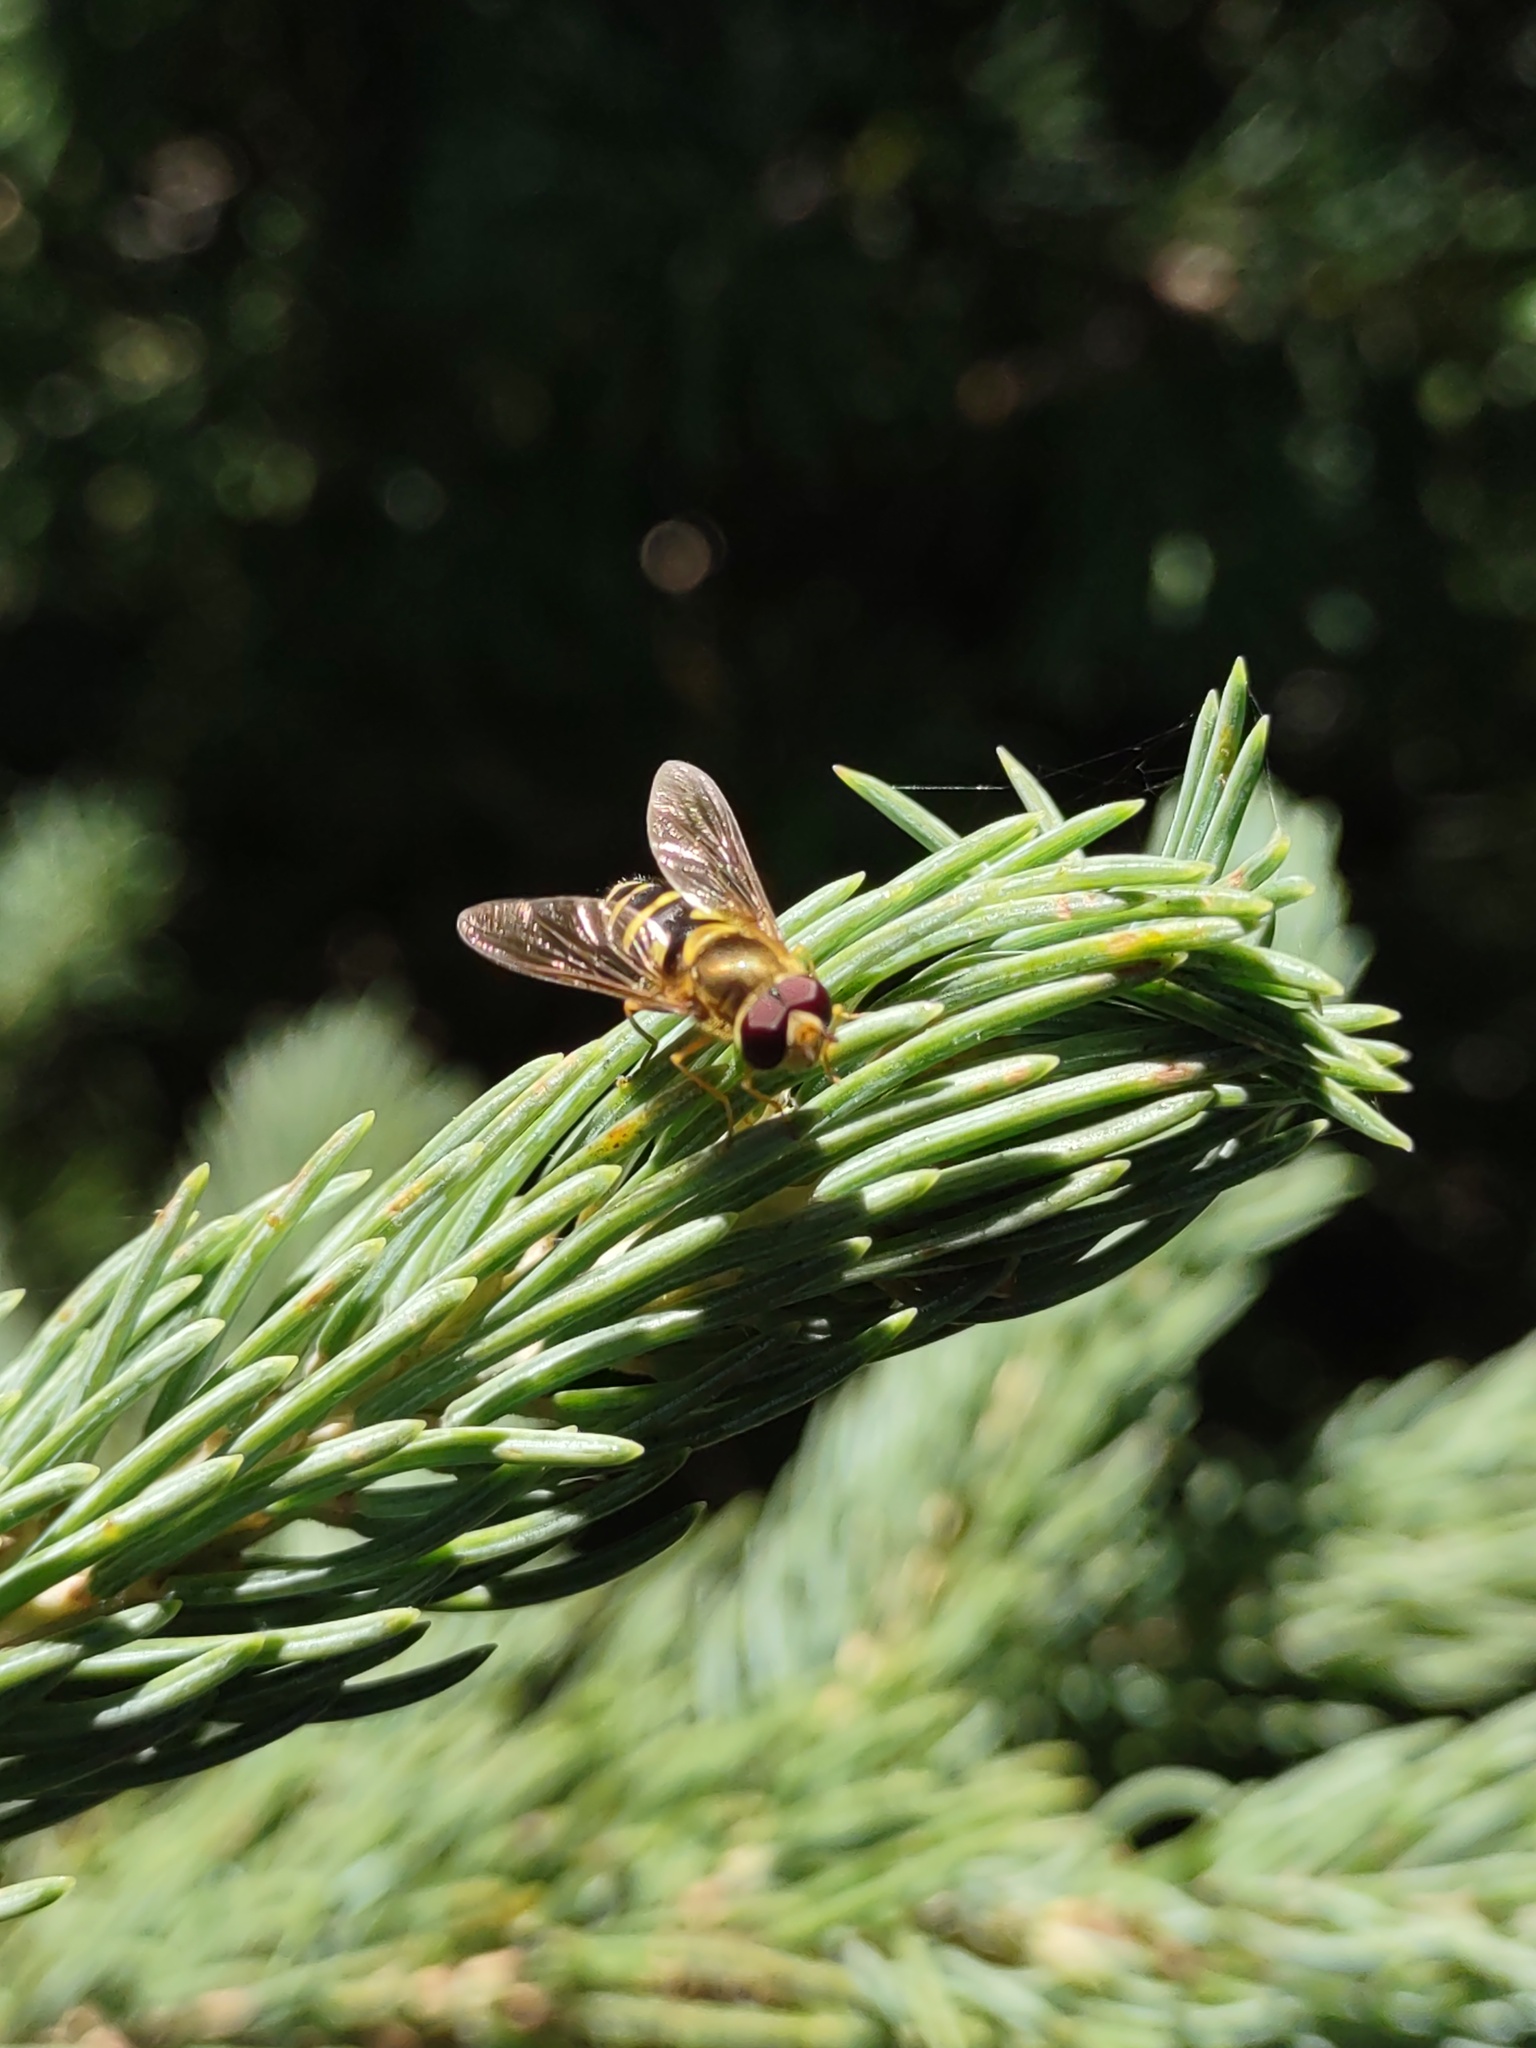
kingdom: Animalia
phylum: Arthropoda
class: Insecta
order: Diptera
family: Syrphidae
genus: Syrphus
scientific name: Syrphus opinator
